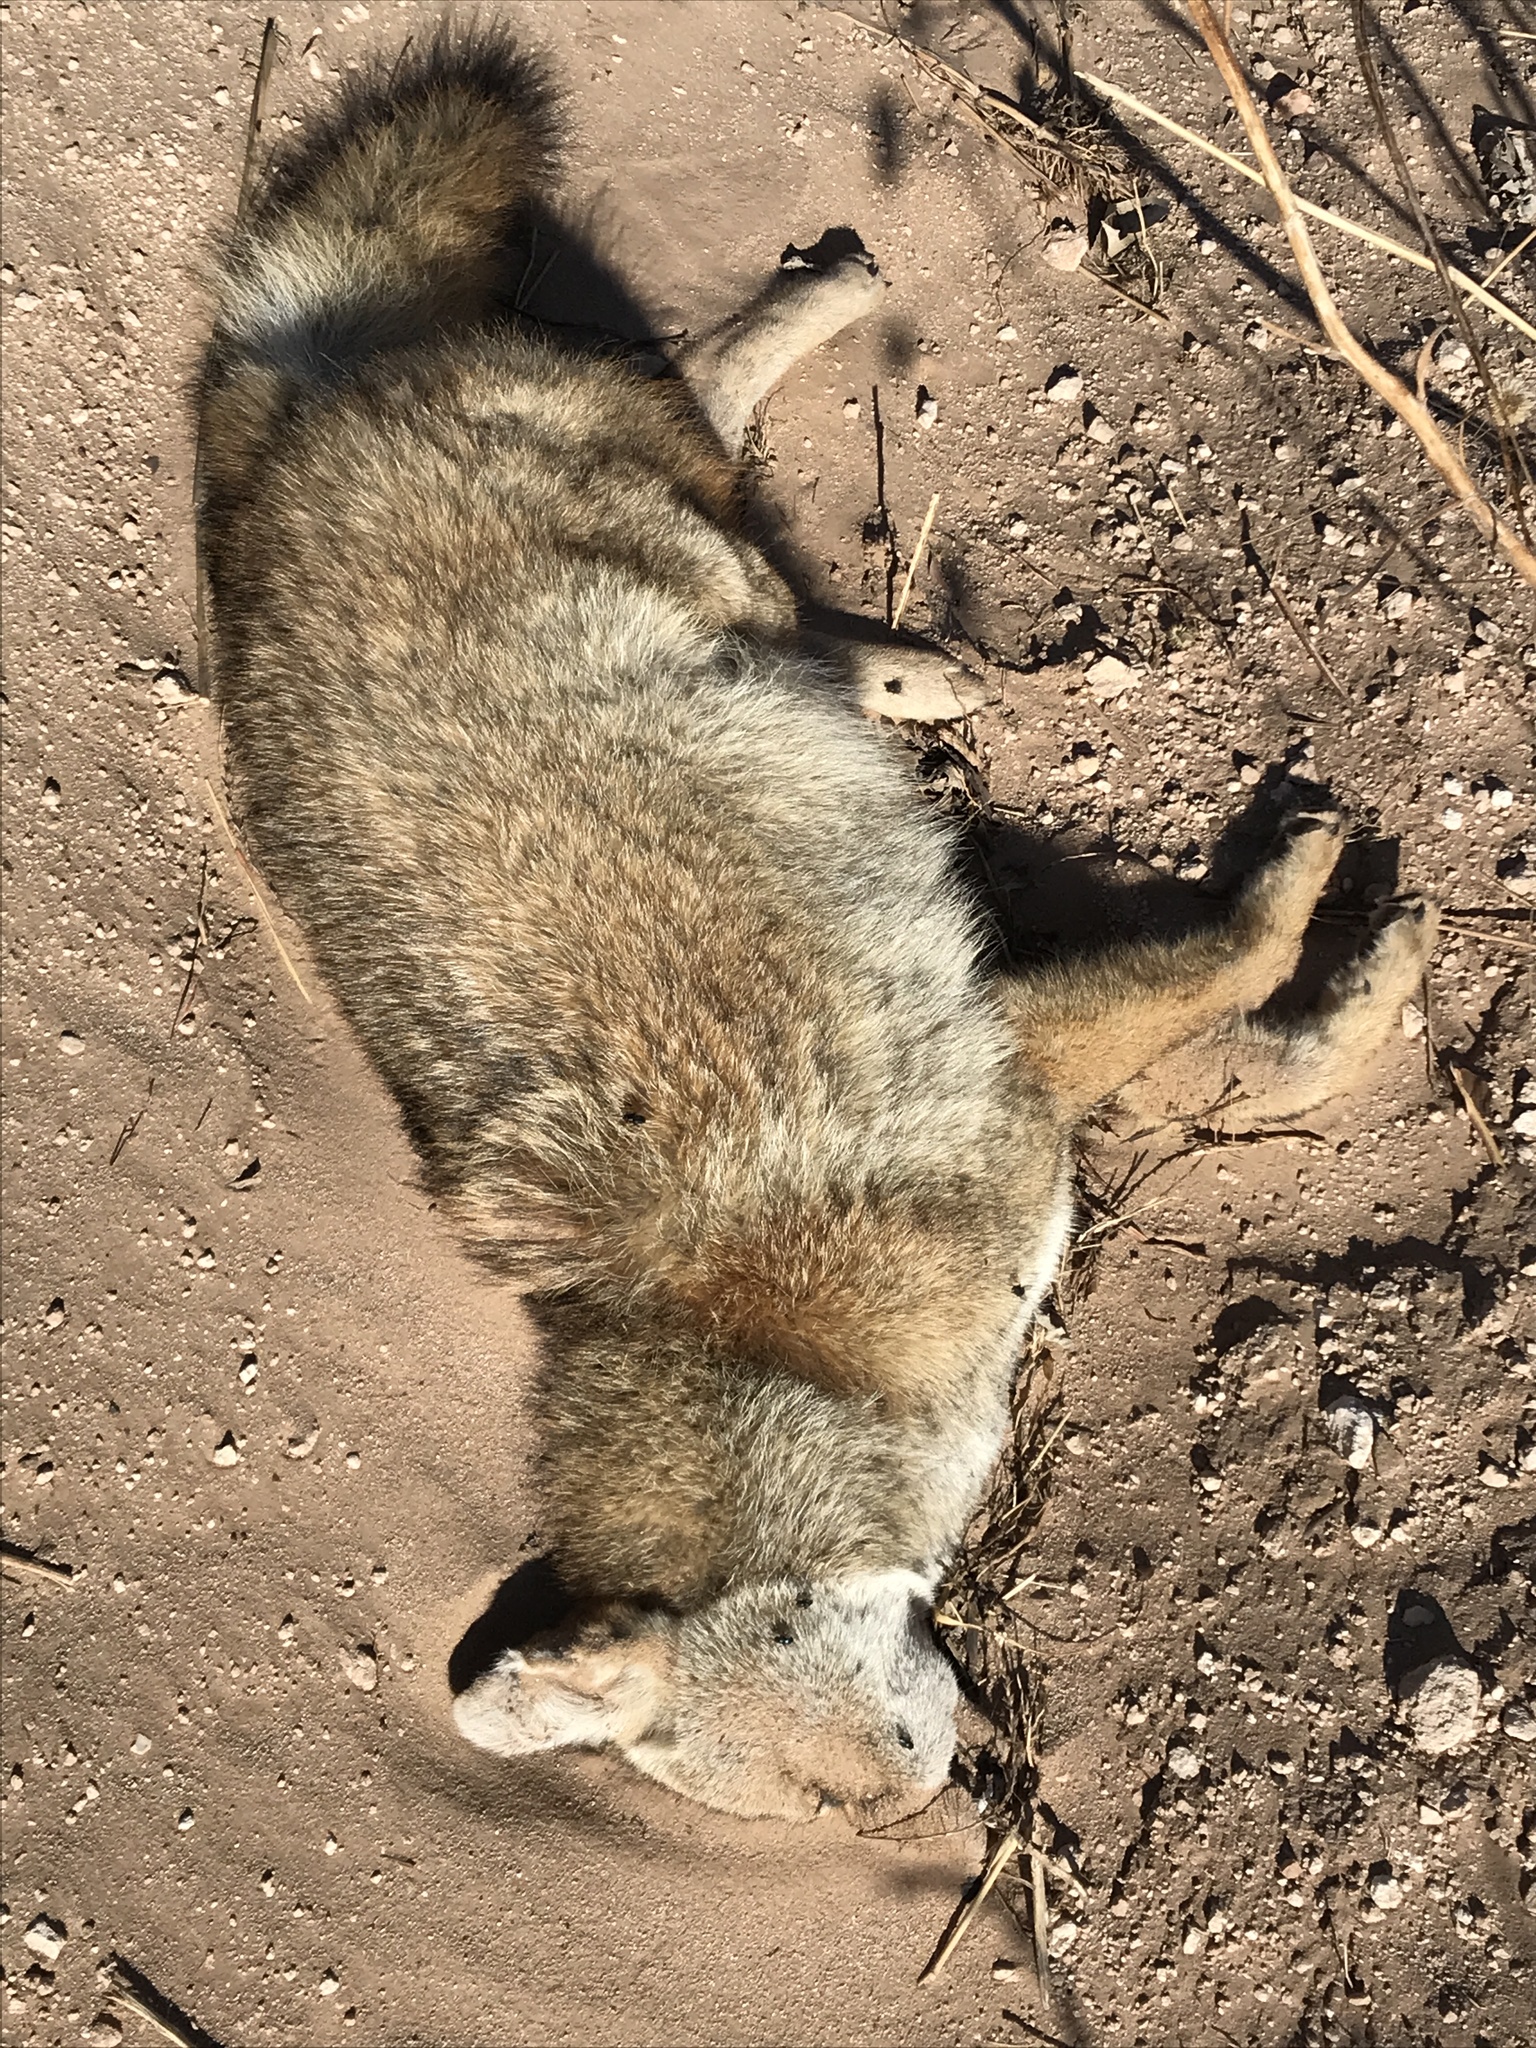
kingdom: Animalia
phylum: Chordata
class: Mammalia
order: Carnivora
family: Canidae
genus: Canis
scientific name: Canis latrans
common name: Coyote
